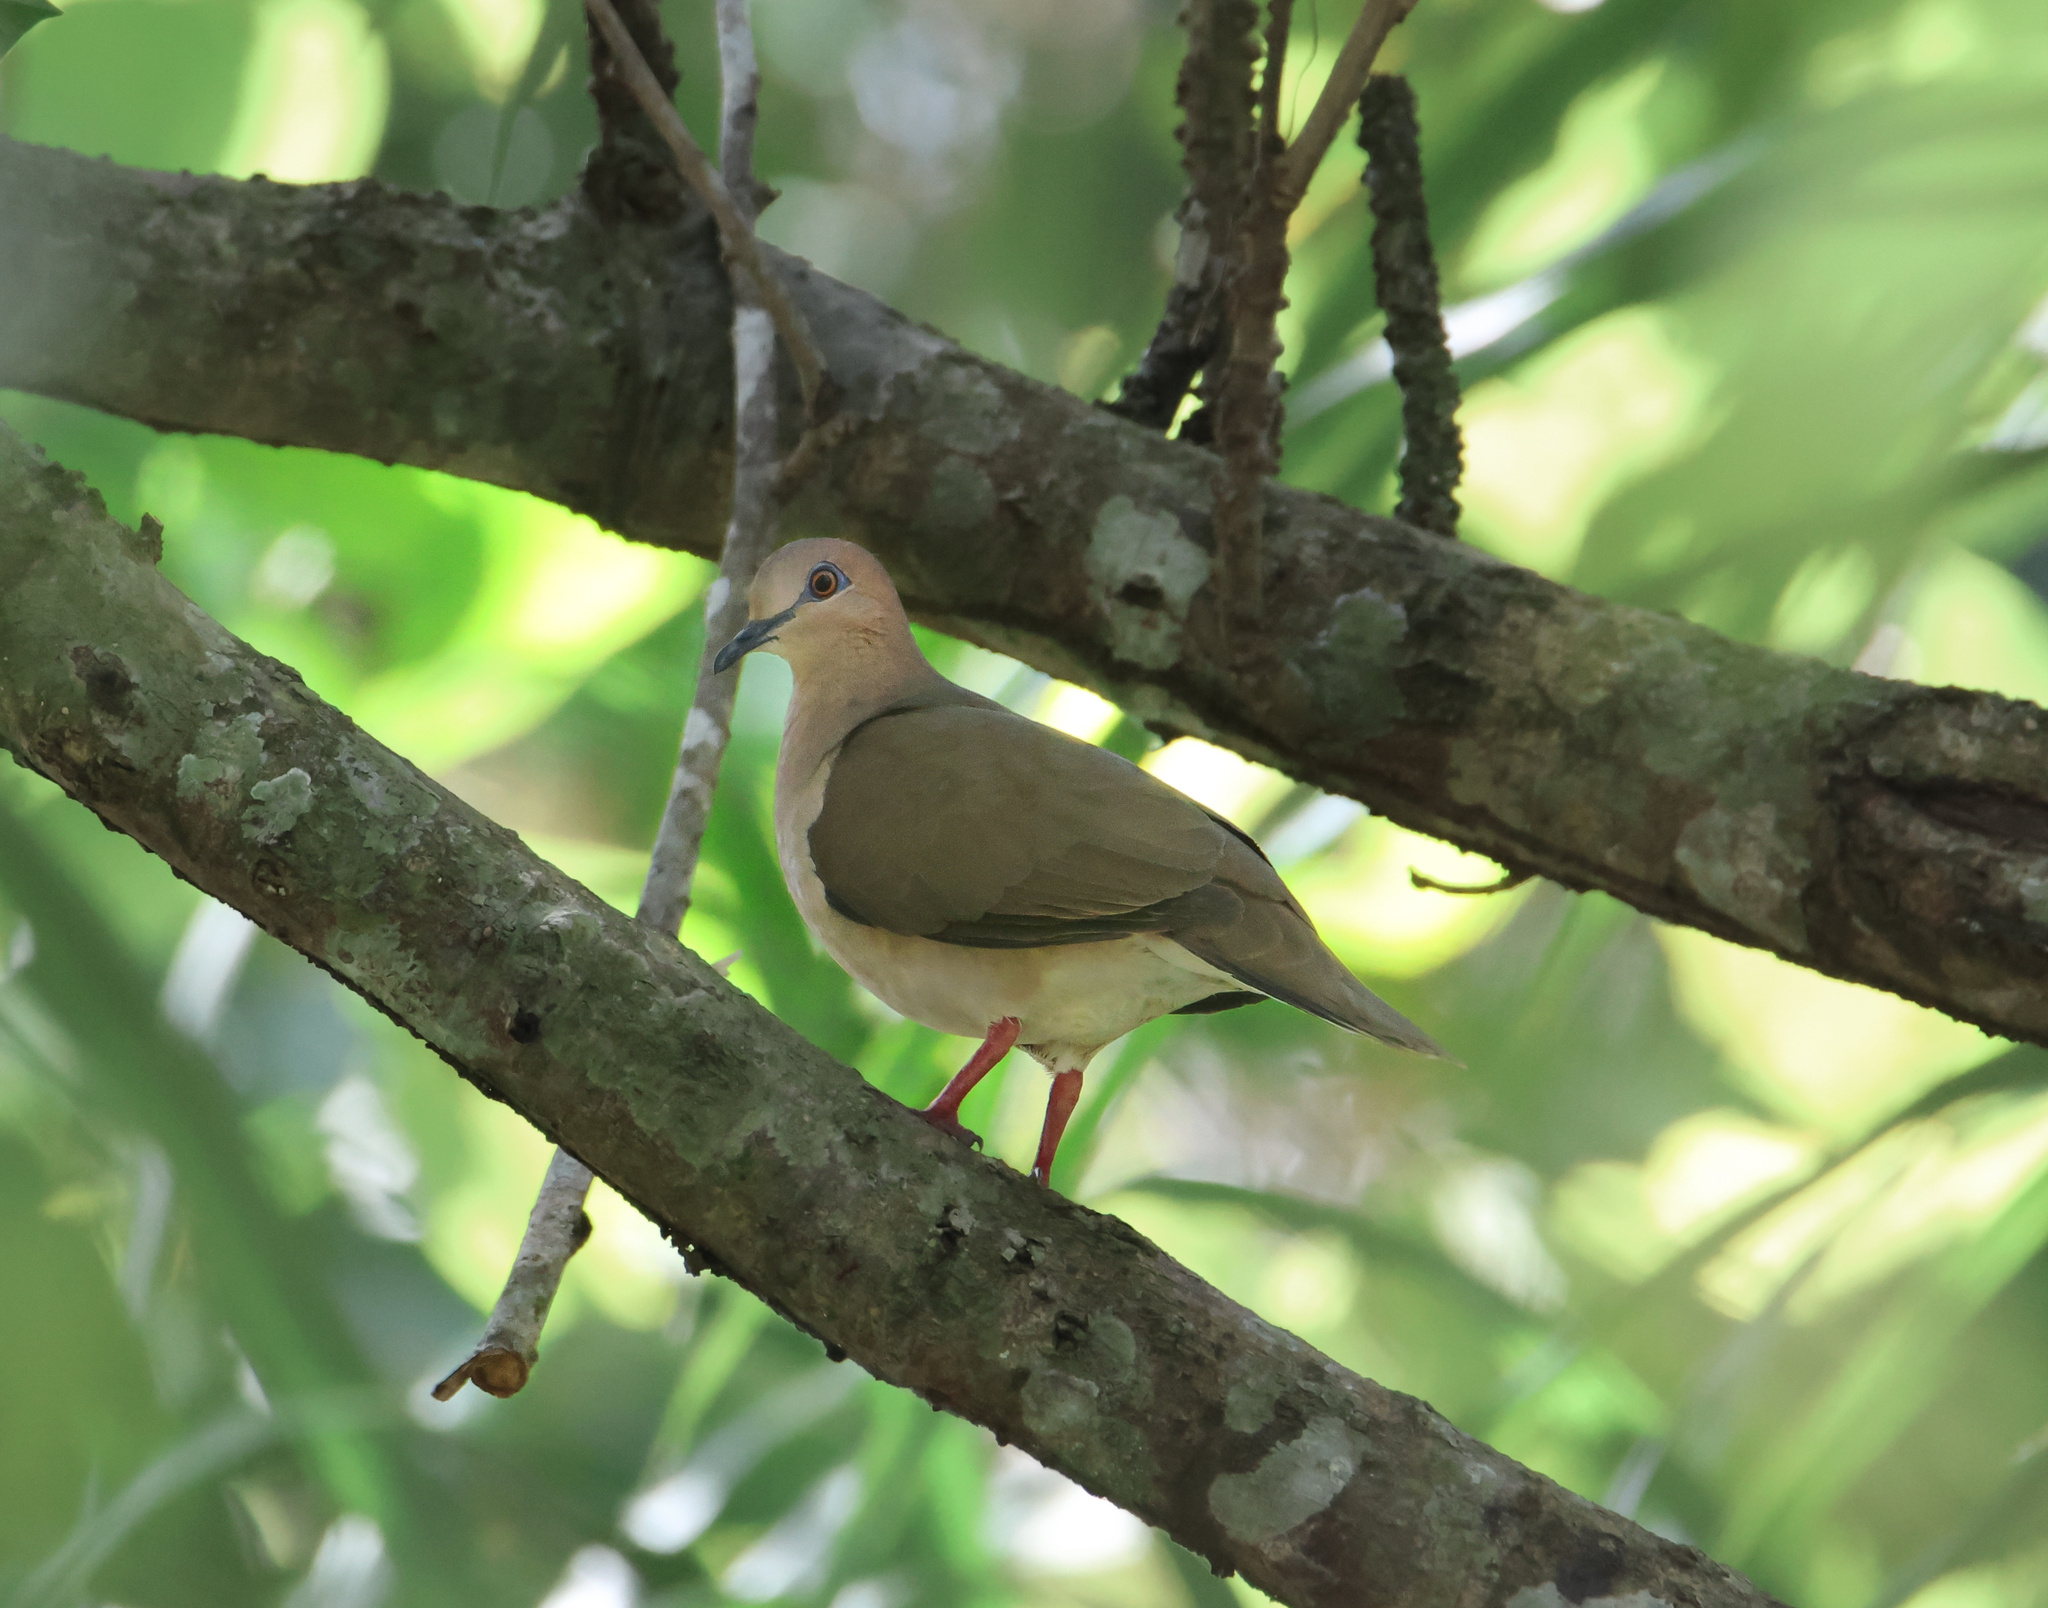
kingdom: Animalia
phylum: Chordata
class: Aves
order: Columbiformes
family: Columbidae
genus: Leptotila
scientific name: Leptotila verreauxi
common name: White-tipped dove
